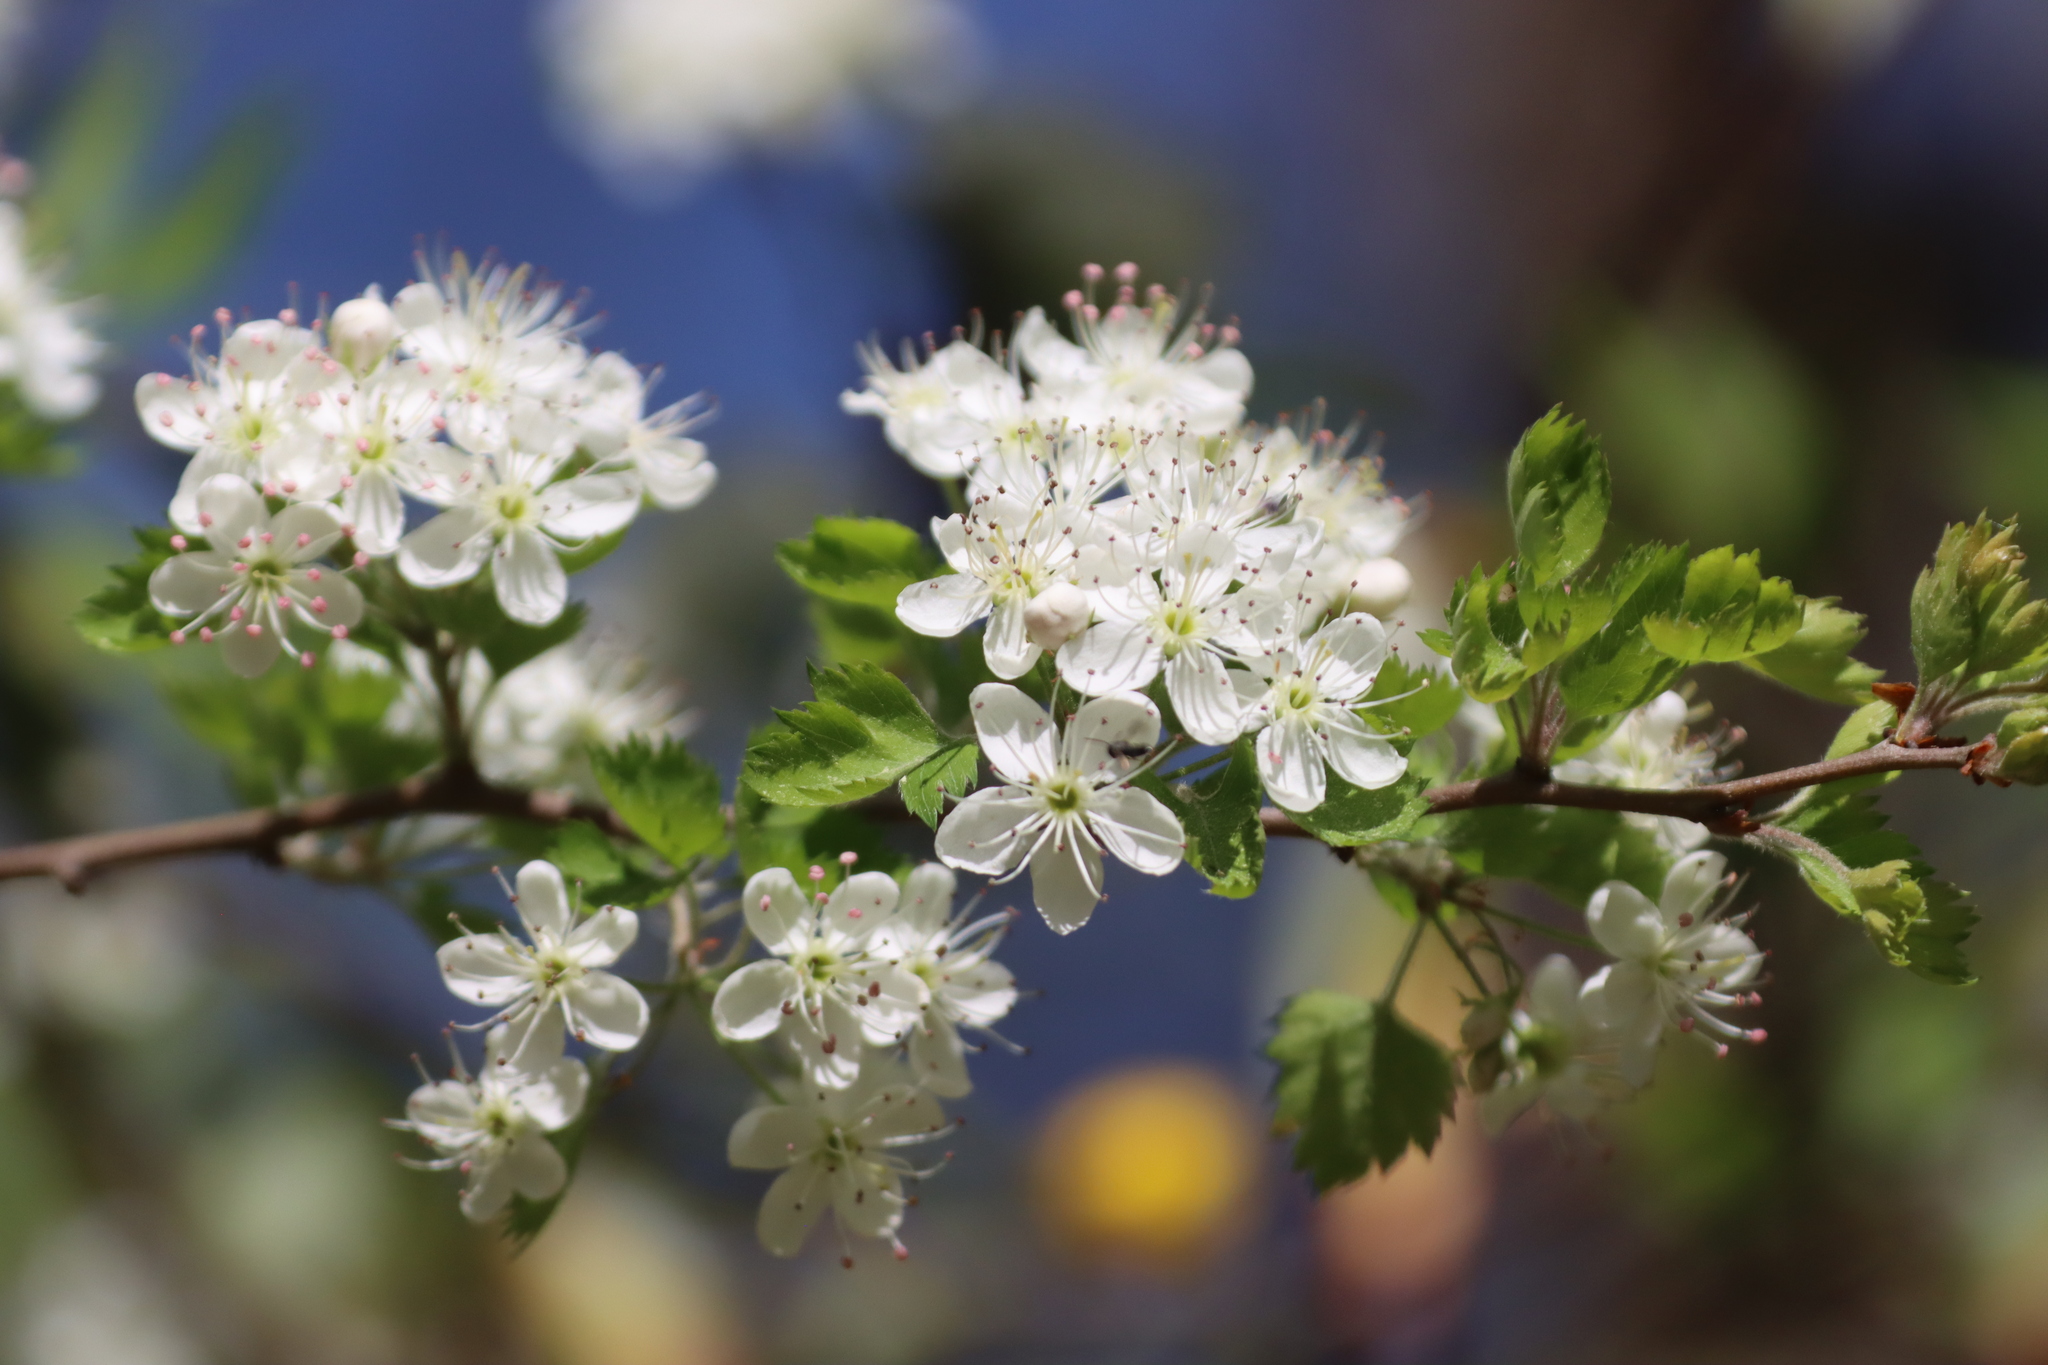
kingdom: Plantae
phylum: Tracheophyta
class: Magnoliopsida
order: Rosales
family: Rosaceae
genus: Crataegus
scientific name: Crataegus marshallii
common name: Parsley-hawthorn
